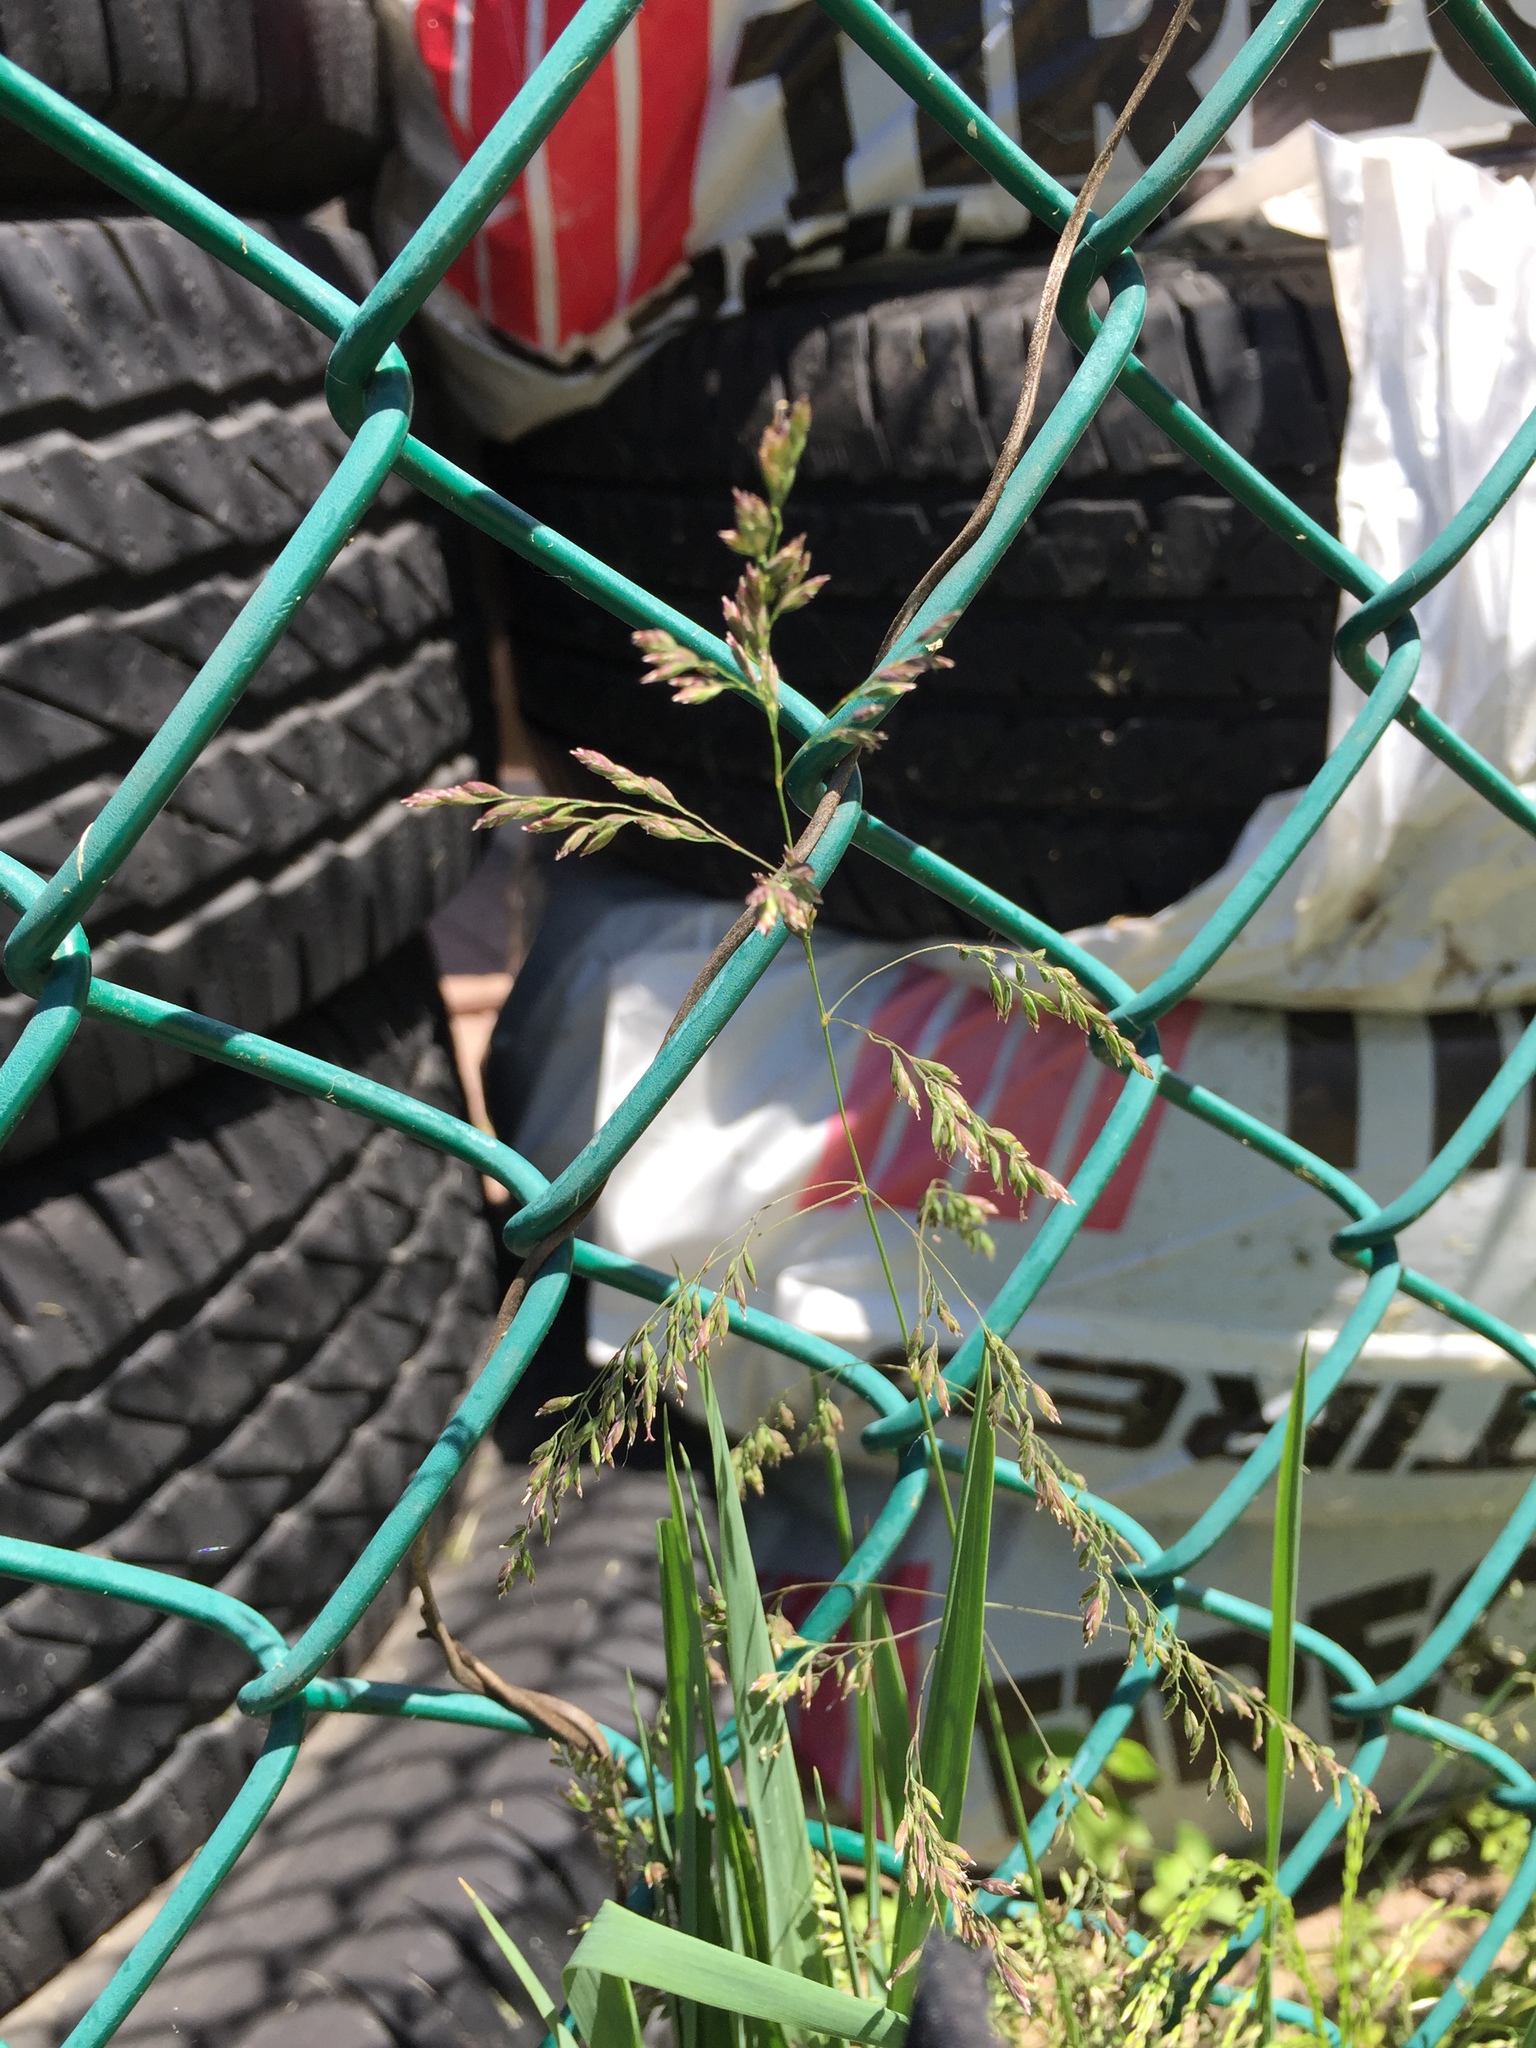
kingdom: Plantae
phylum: Tracheophyta
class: Liliopsida
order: Poales
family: Poaceae
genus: Poa
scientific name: Poa pratensis
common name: Kentucky bluegrass
